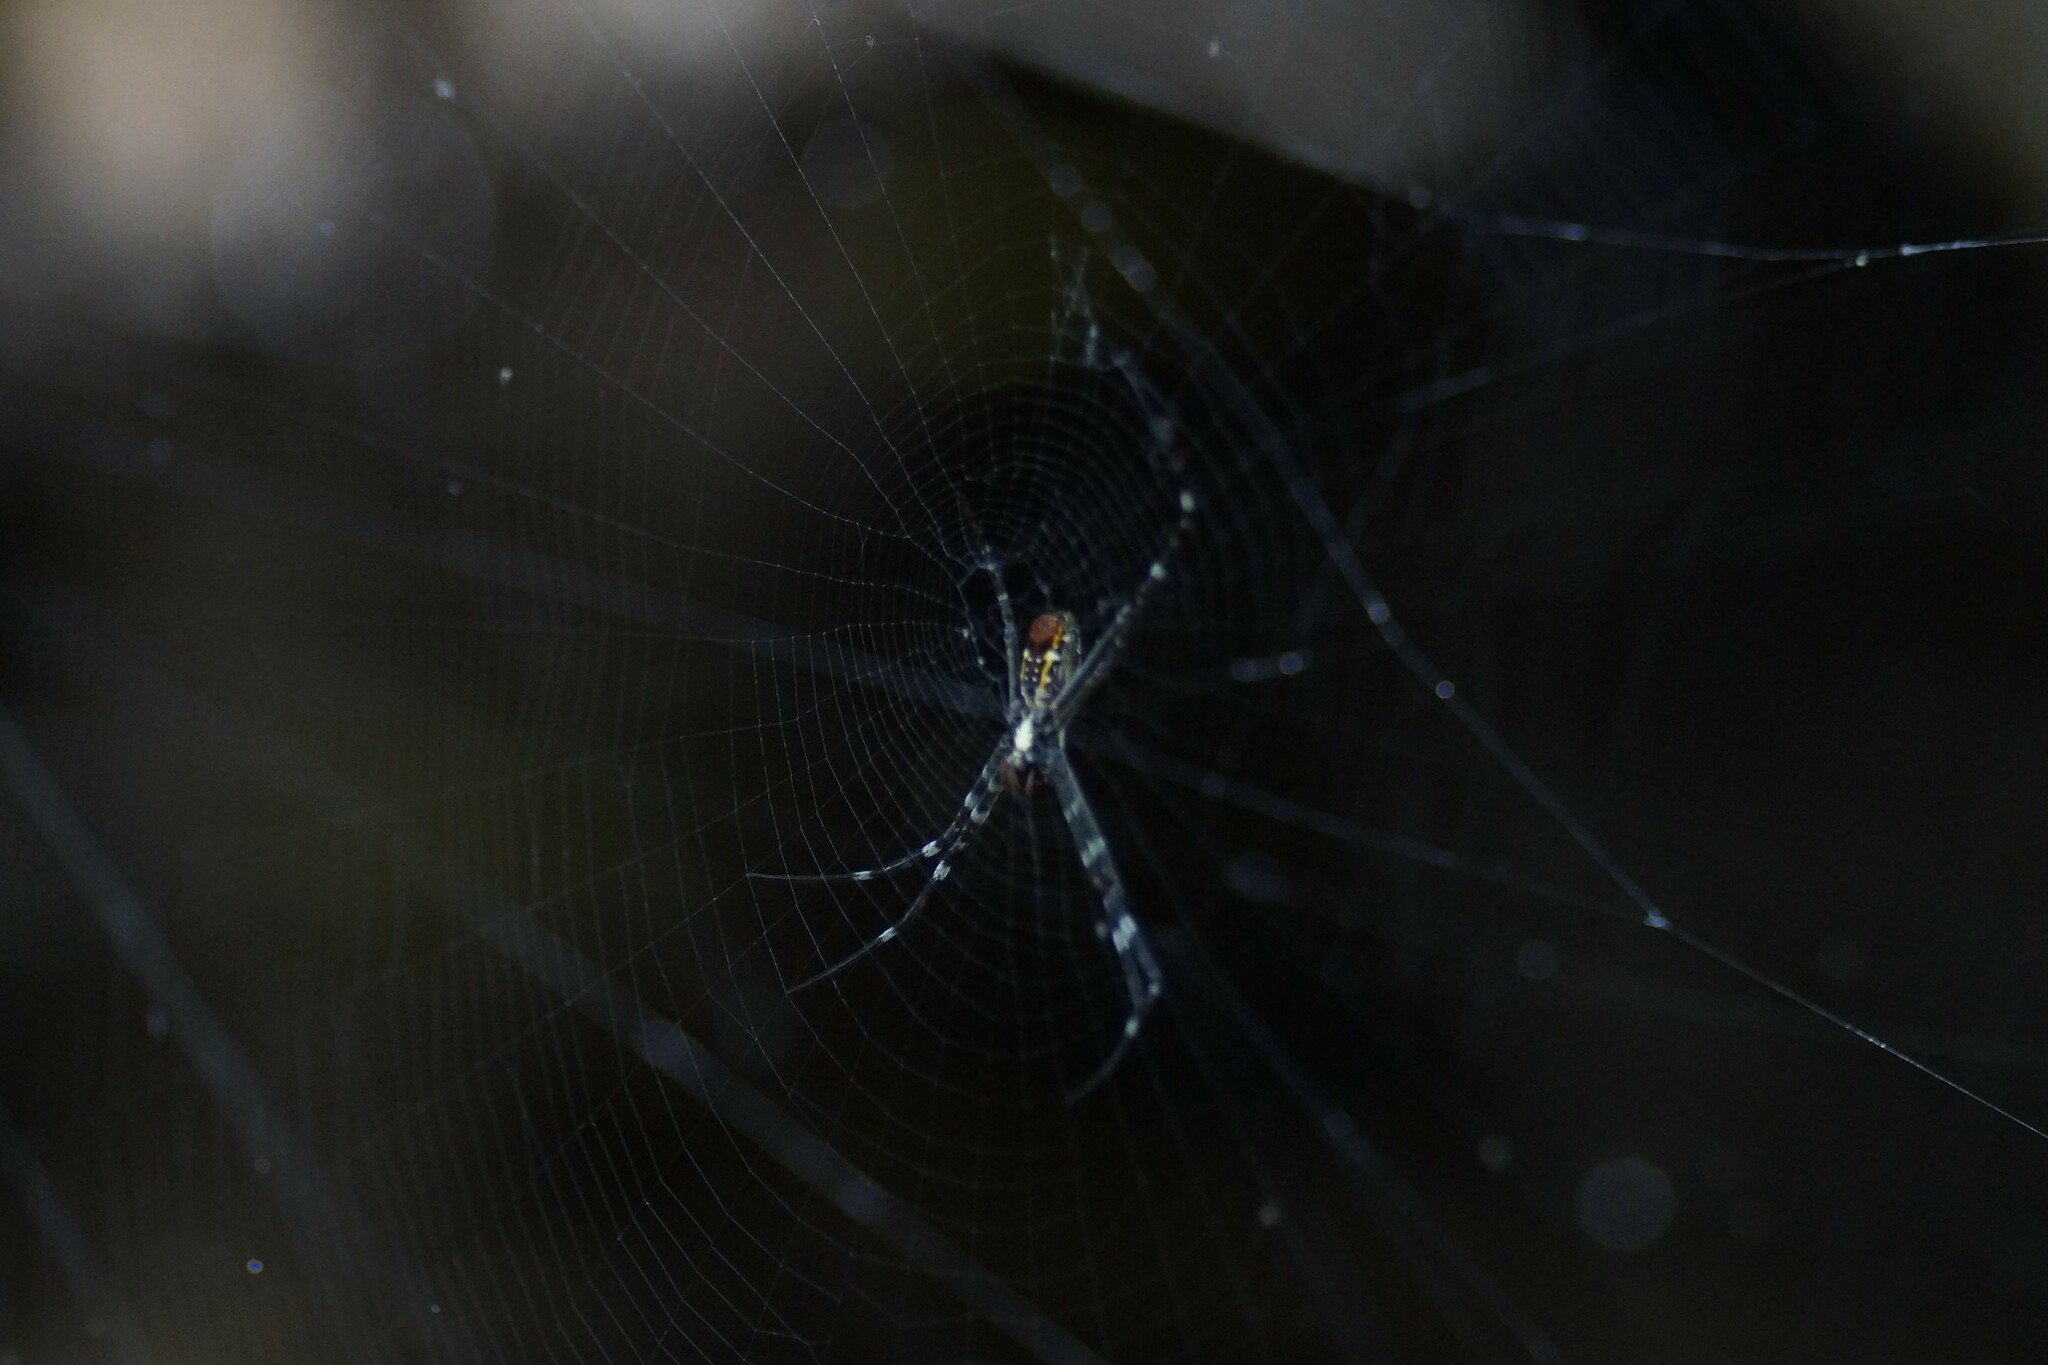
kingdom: Animalia
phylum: Arthropoda
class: Arachnida
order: Araneae
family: Araneidae
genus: Argiope
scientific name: Argiope radon
